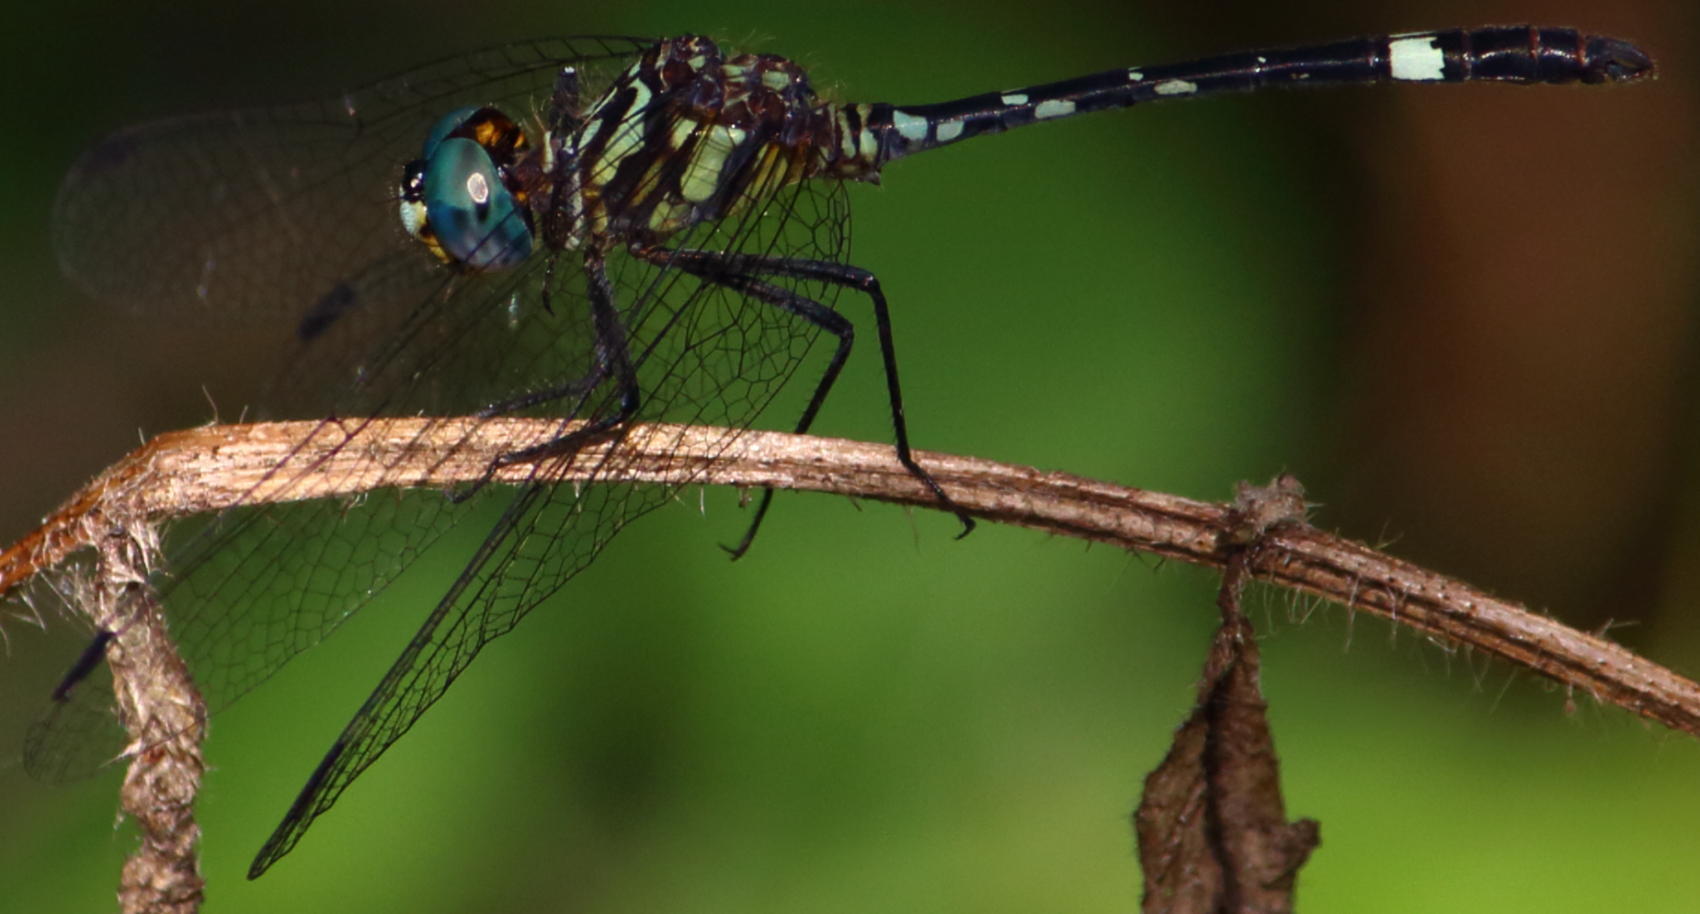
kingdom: Animalia
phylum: Arthropoda
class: Insecta
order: Odonata
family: Libellulidae
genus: Notiothemis
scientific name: Notiothemis jonesi
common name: Eastern elf
